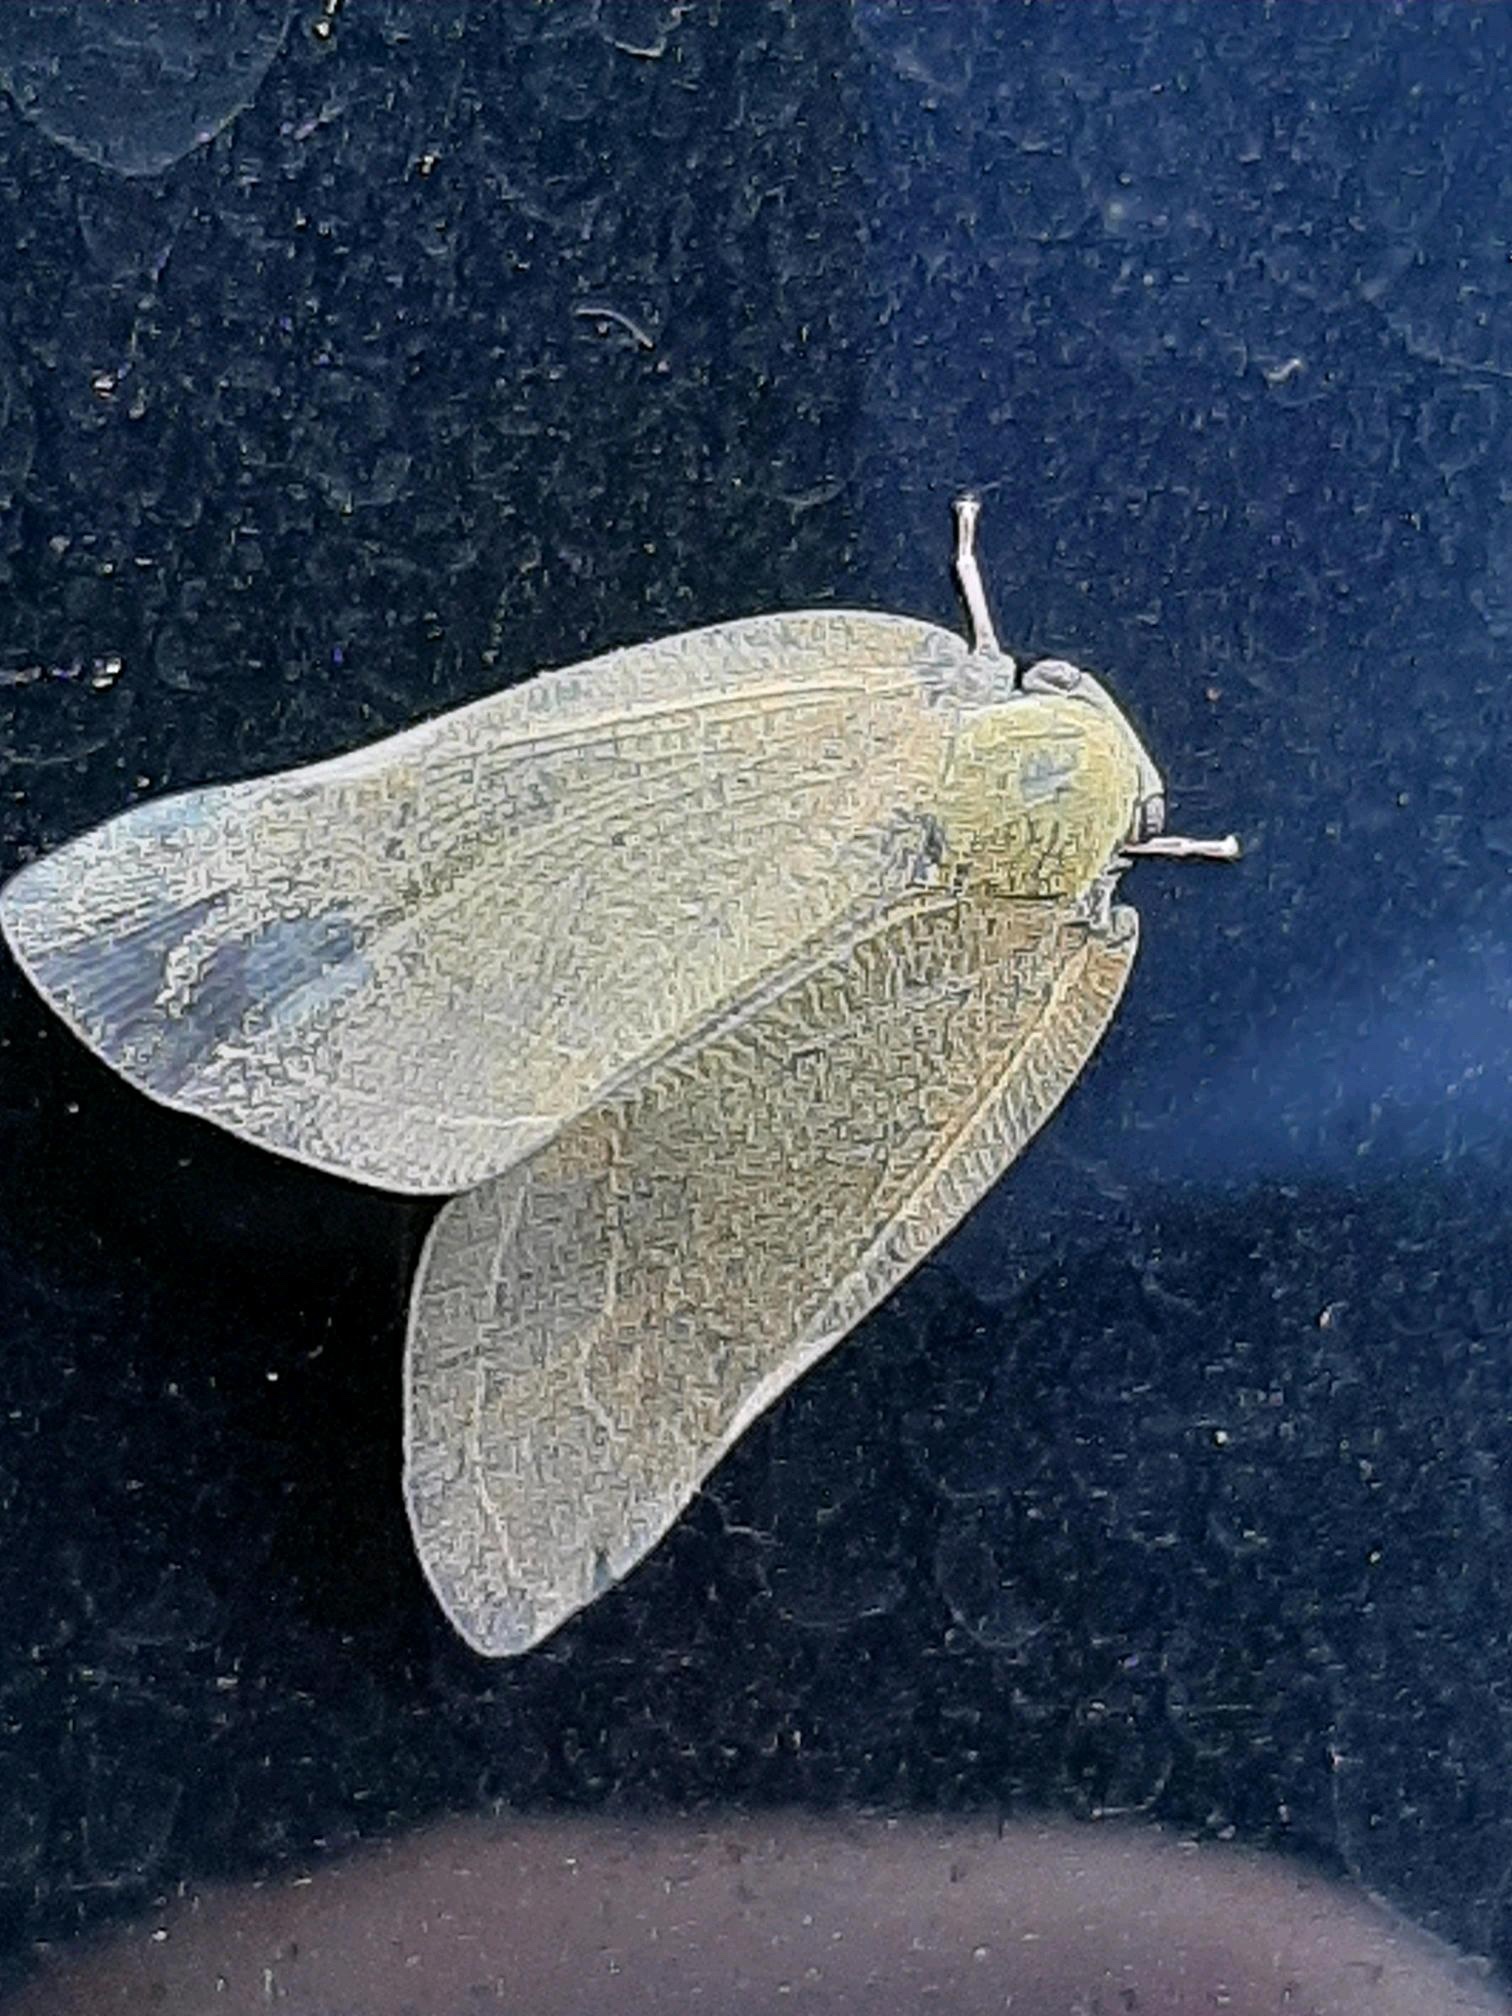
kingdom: Animalia
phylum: Arthropoda
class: Insecta
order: Hemiptera
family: Ricaniidae
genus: Ricanula
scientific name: Ricanula sublimata
